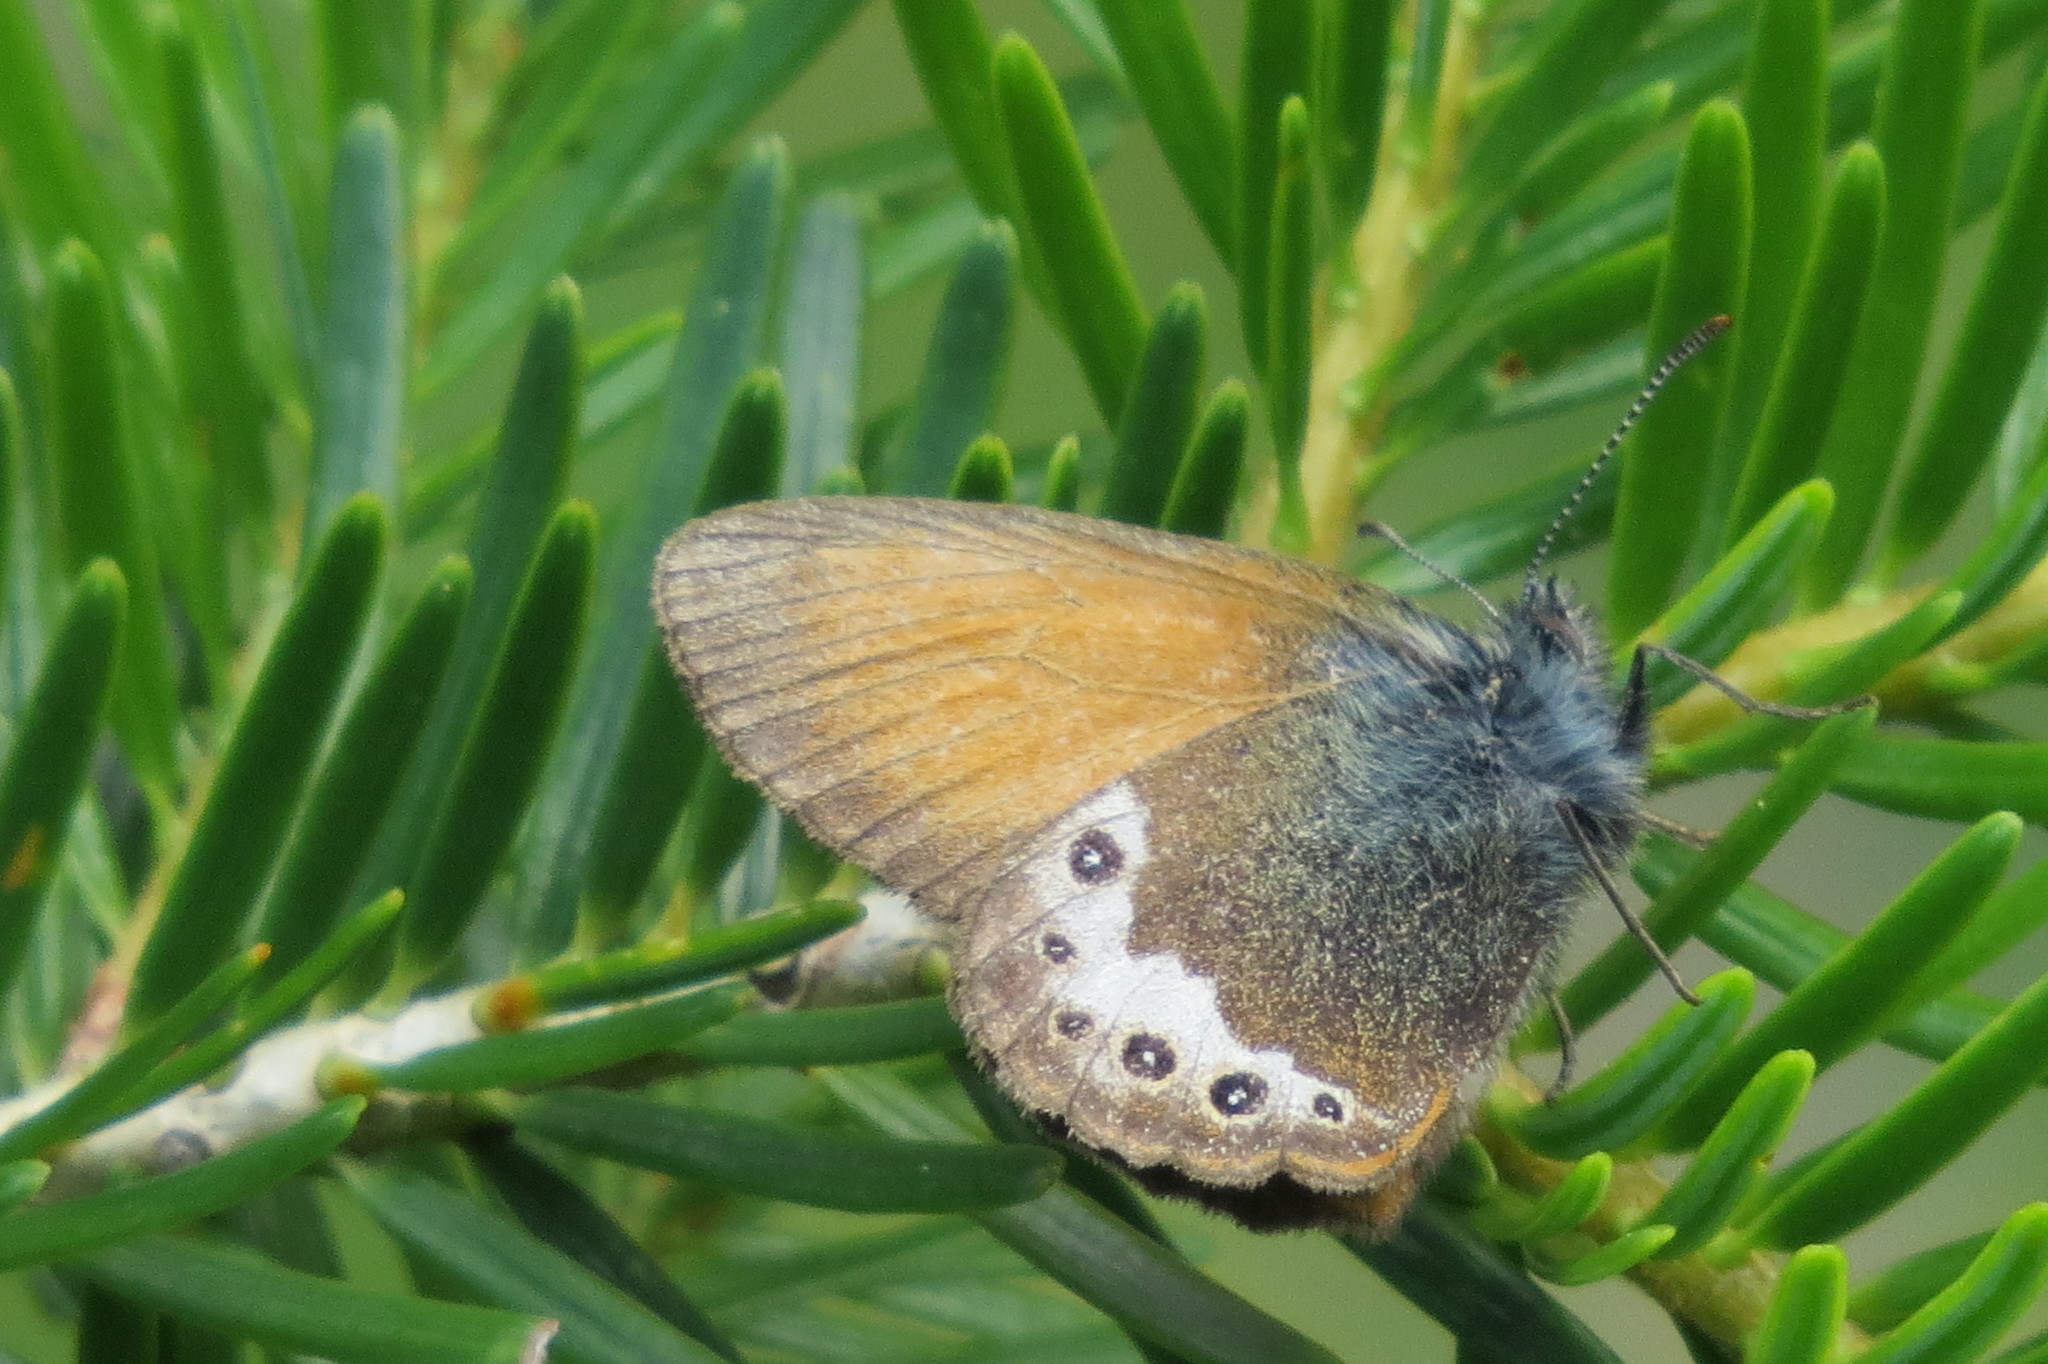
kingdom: Animalia
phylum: Arthropoda
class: Insecta
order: Lepidoptera
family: Nymphalidae
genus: Coenonympha
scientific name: Coenonympha
